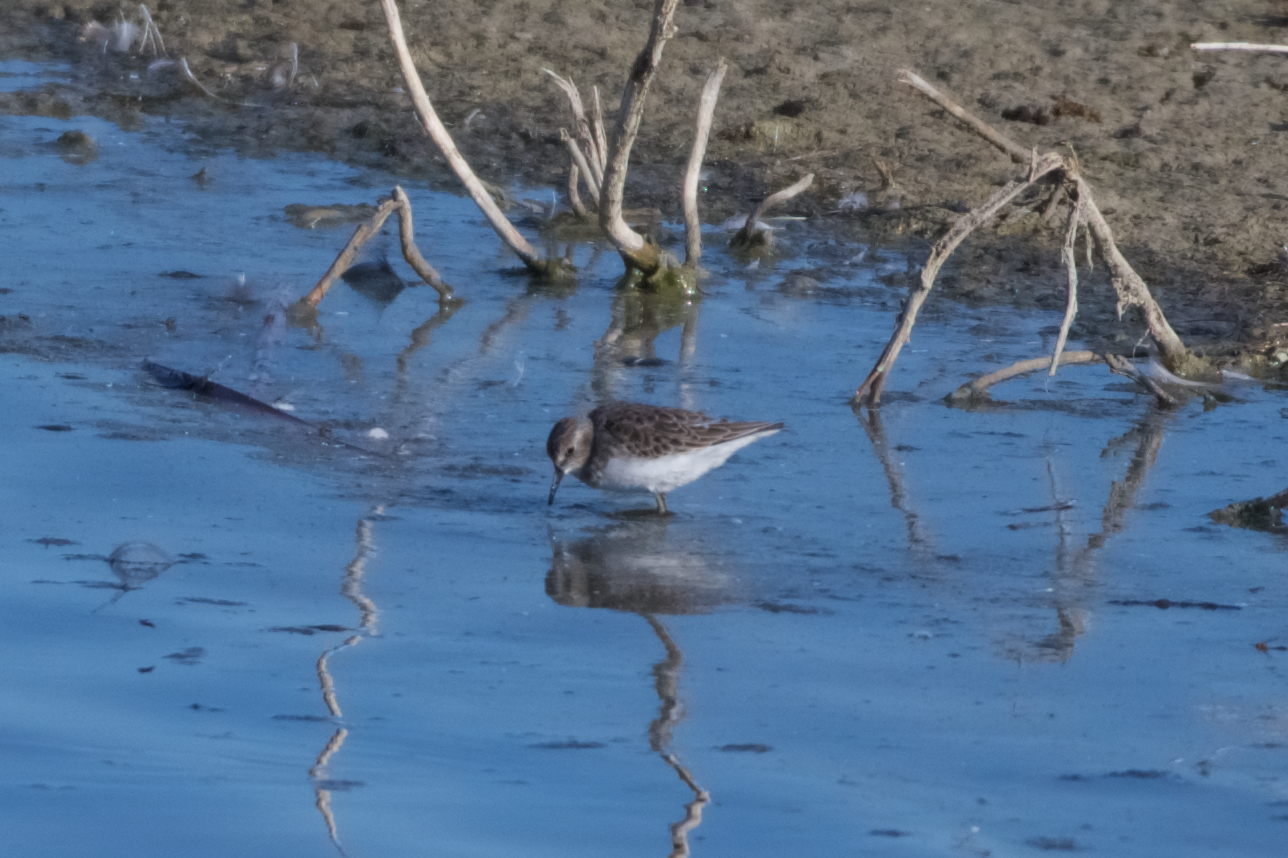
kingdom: Animalia
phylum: Chordata
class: Aves
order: Charadriiformes
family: Scolopacidae
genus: Calidris
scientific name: Calidris minutilla
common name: Least sandpiper
